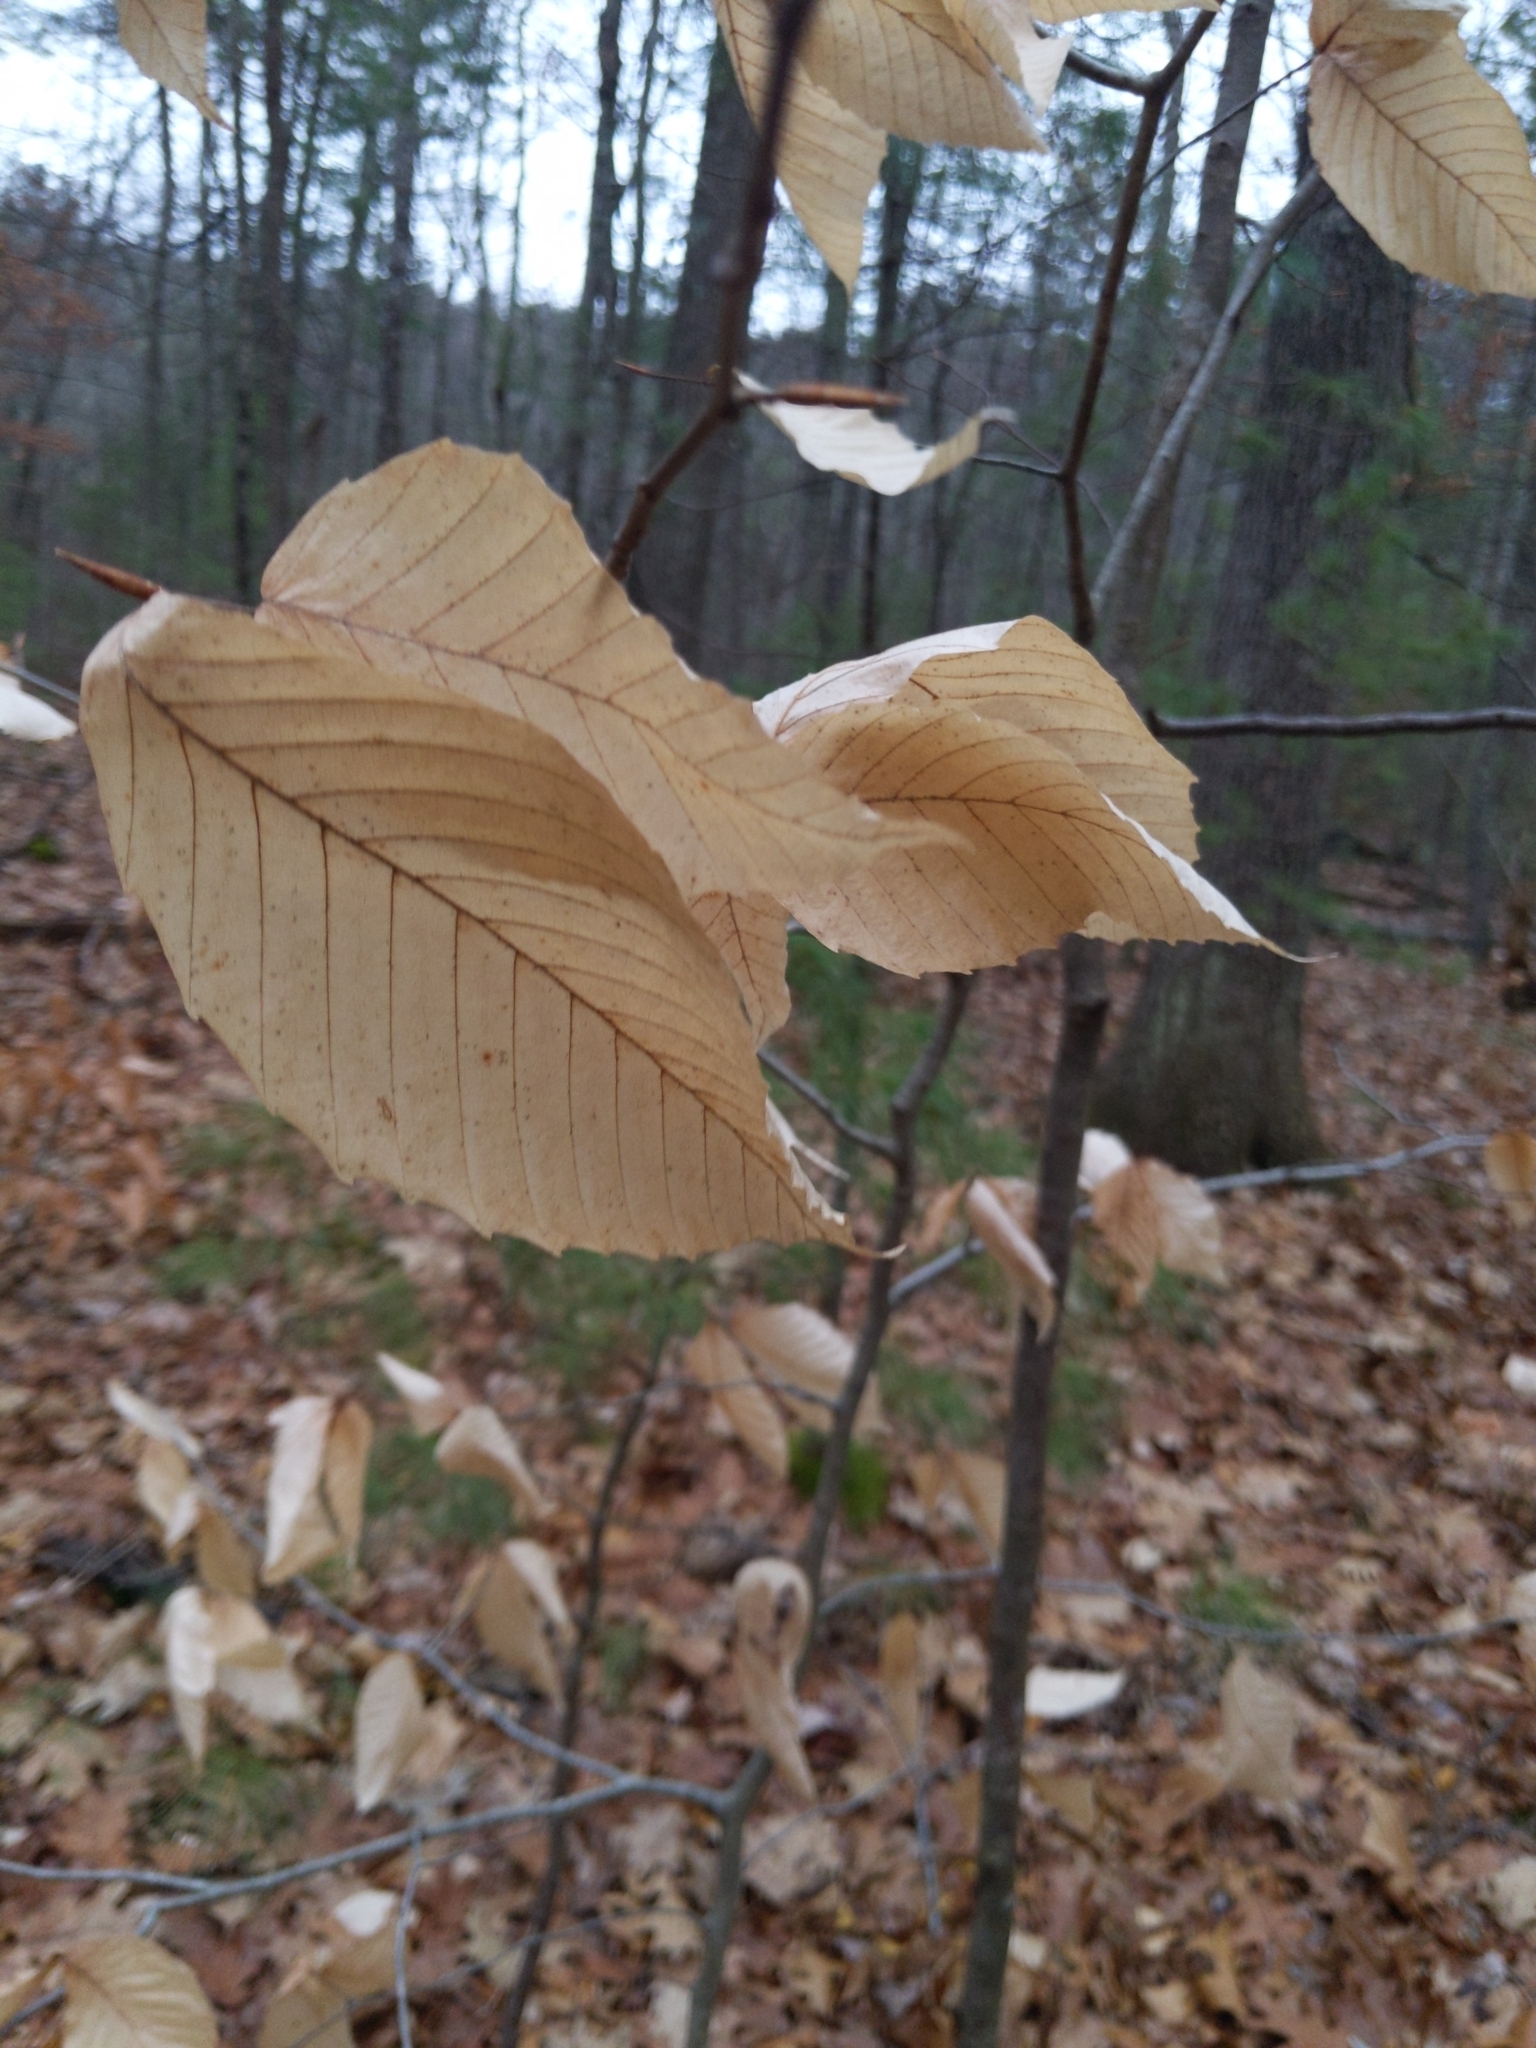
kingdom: Plantae
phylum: Tracheophyta
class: Magnoliopsida
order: Fagales
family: Fagaceae
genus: Fagus
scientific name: Fagus grandifolia
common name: American beech
